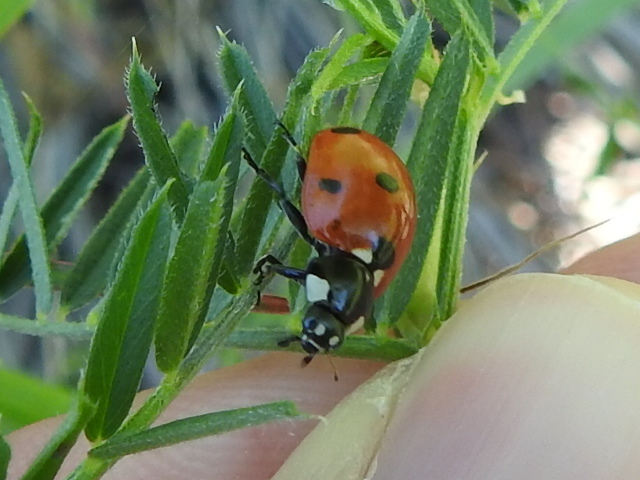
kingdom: Animalia
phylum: Arthropoda
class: Insecta
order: Coleoptera
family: Coccinellidae
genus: Coccinella
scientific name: Coccinella septempunctata
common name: Sevenspotted lady beetle
